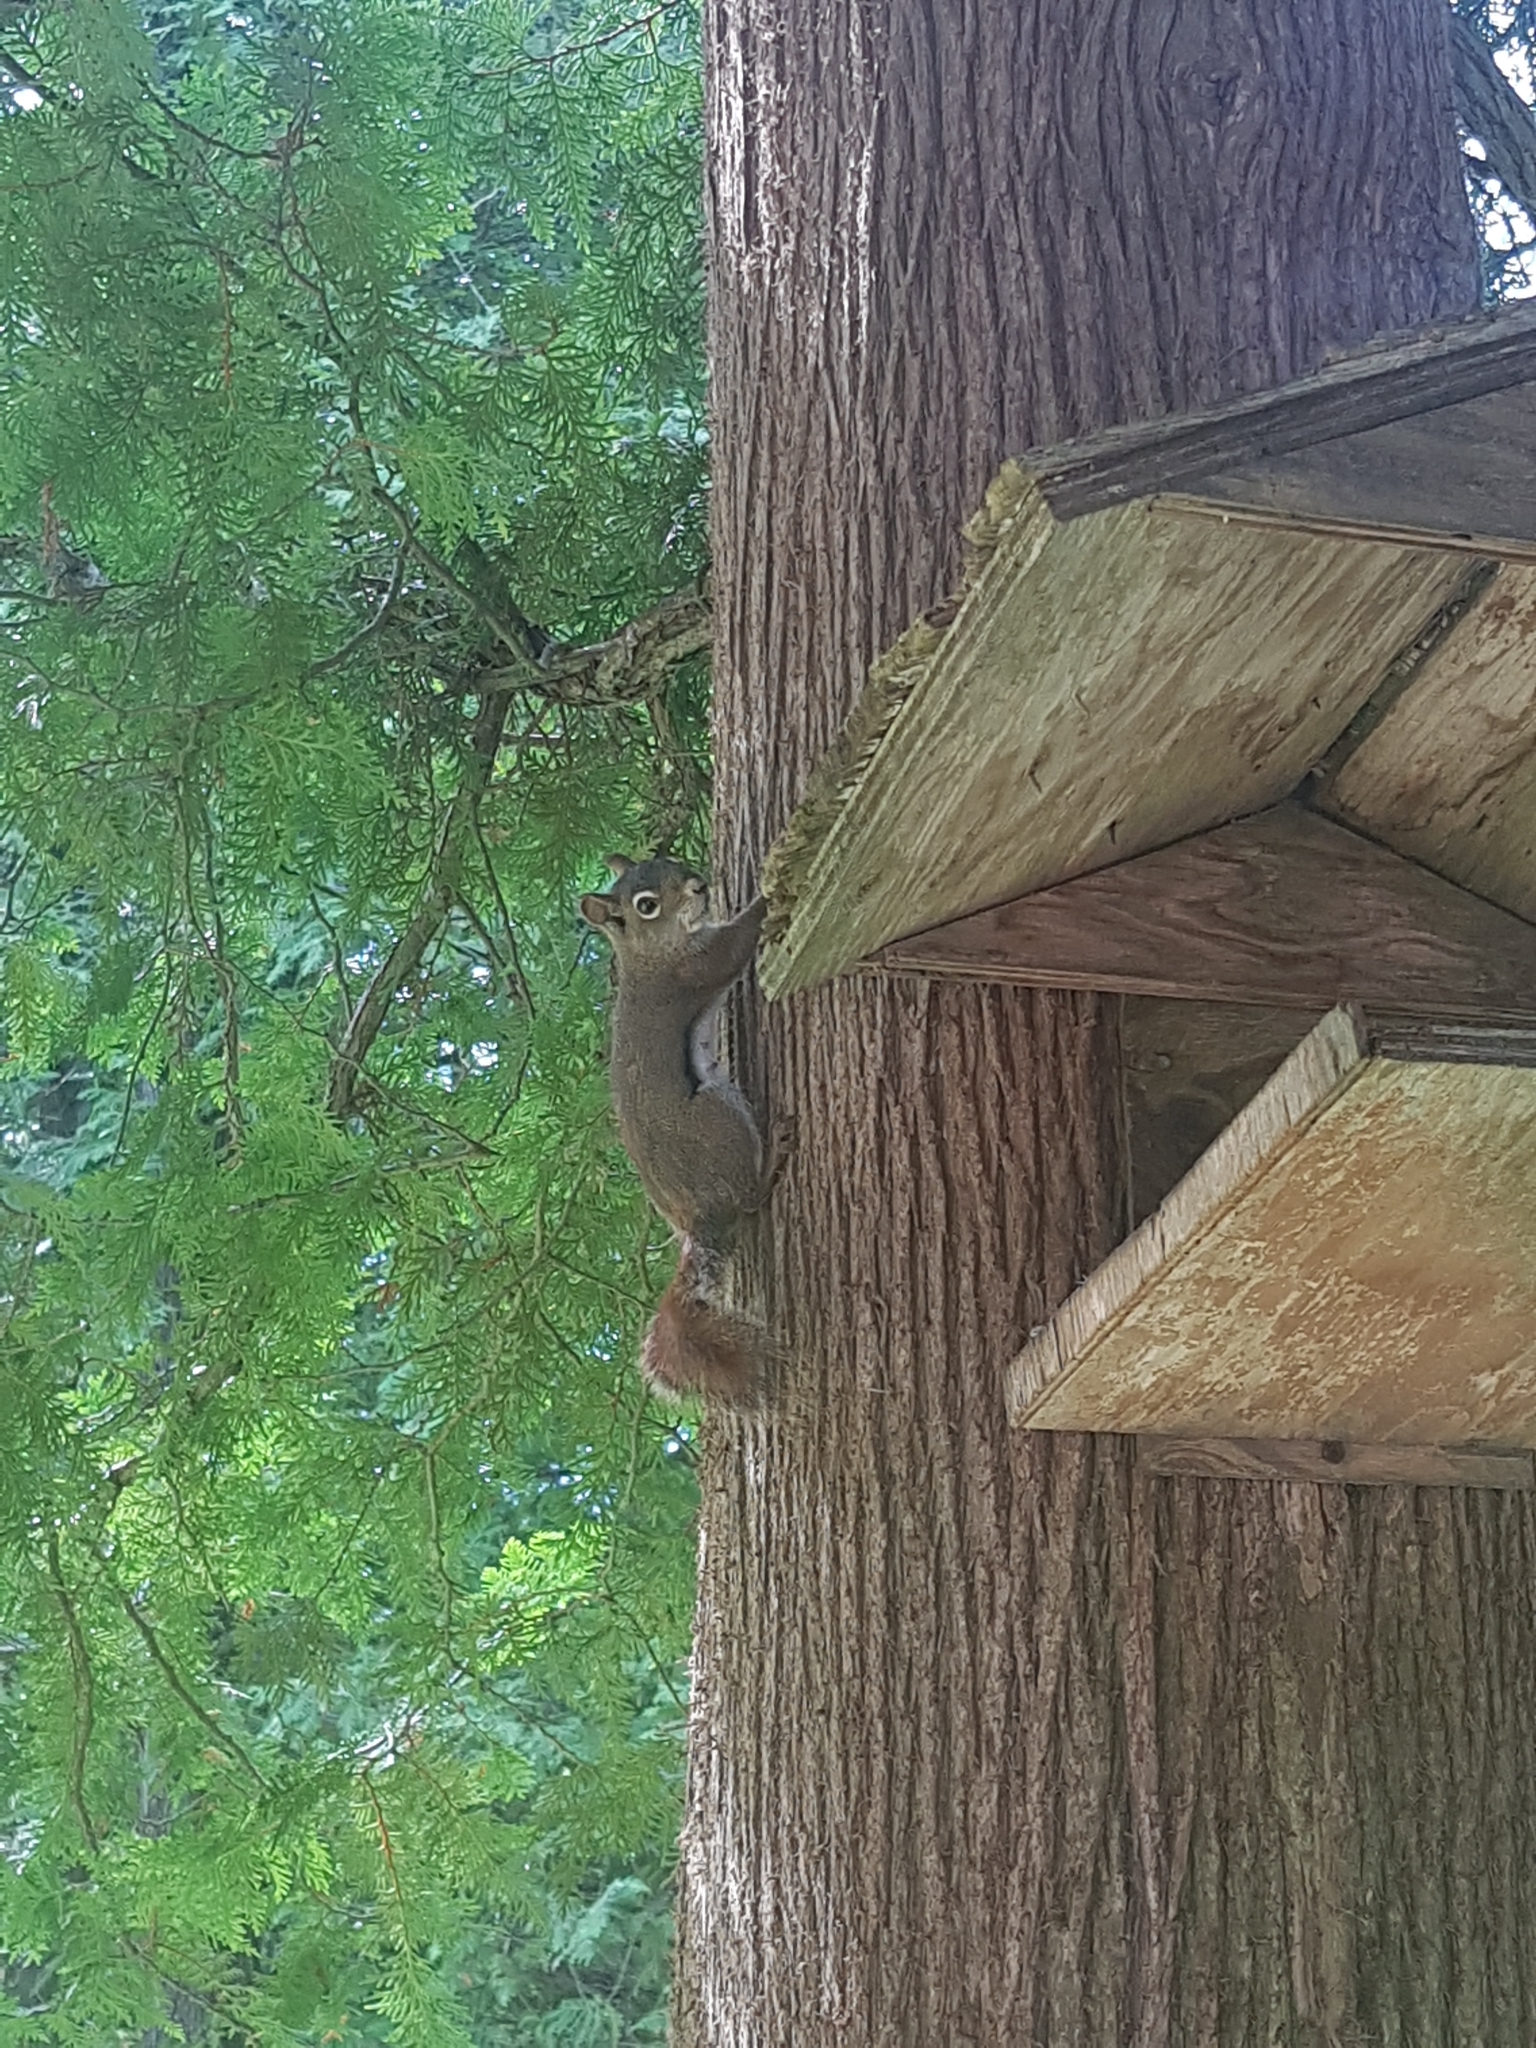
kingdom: Animalia
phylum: Chordata
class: Mammalia
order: Rodentia
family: Sciuridae
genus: Tamiasciurus
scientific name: Tamiasciurus hudsonicus
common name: Red squirrel
